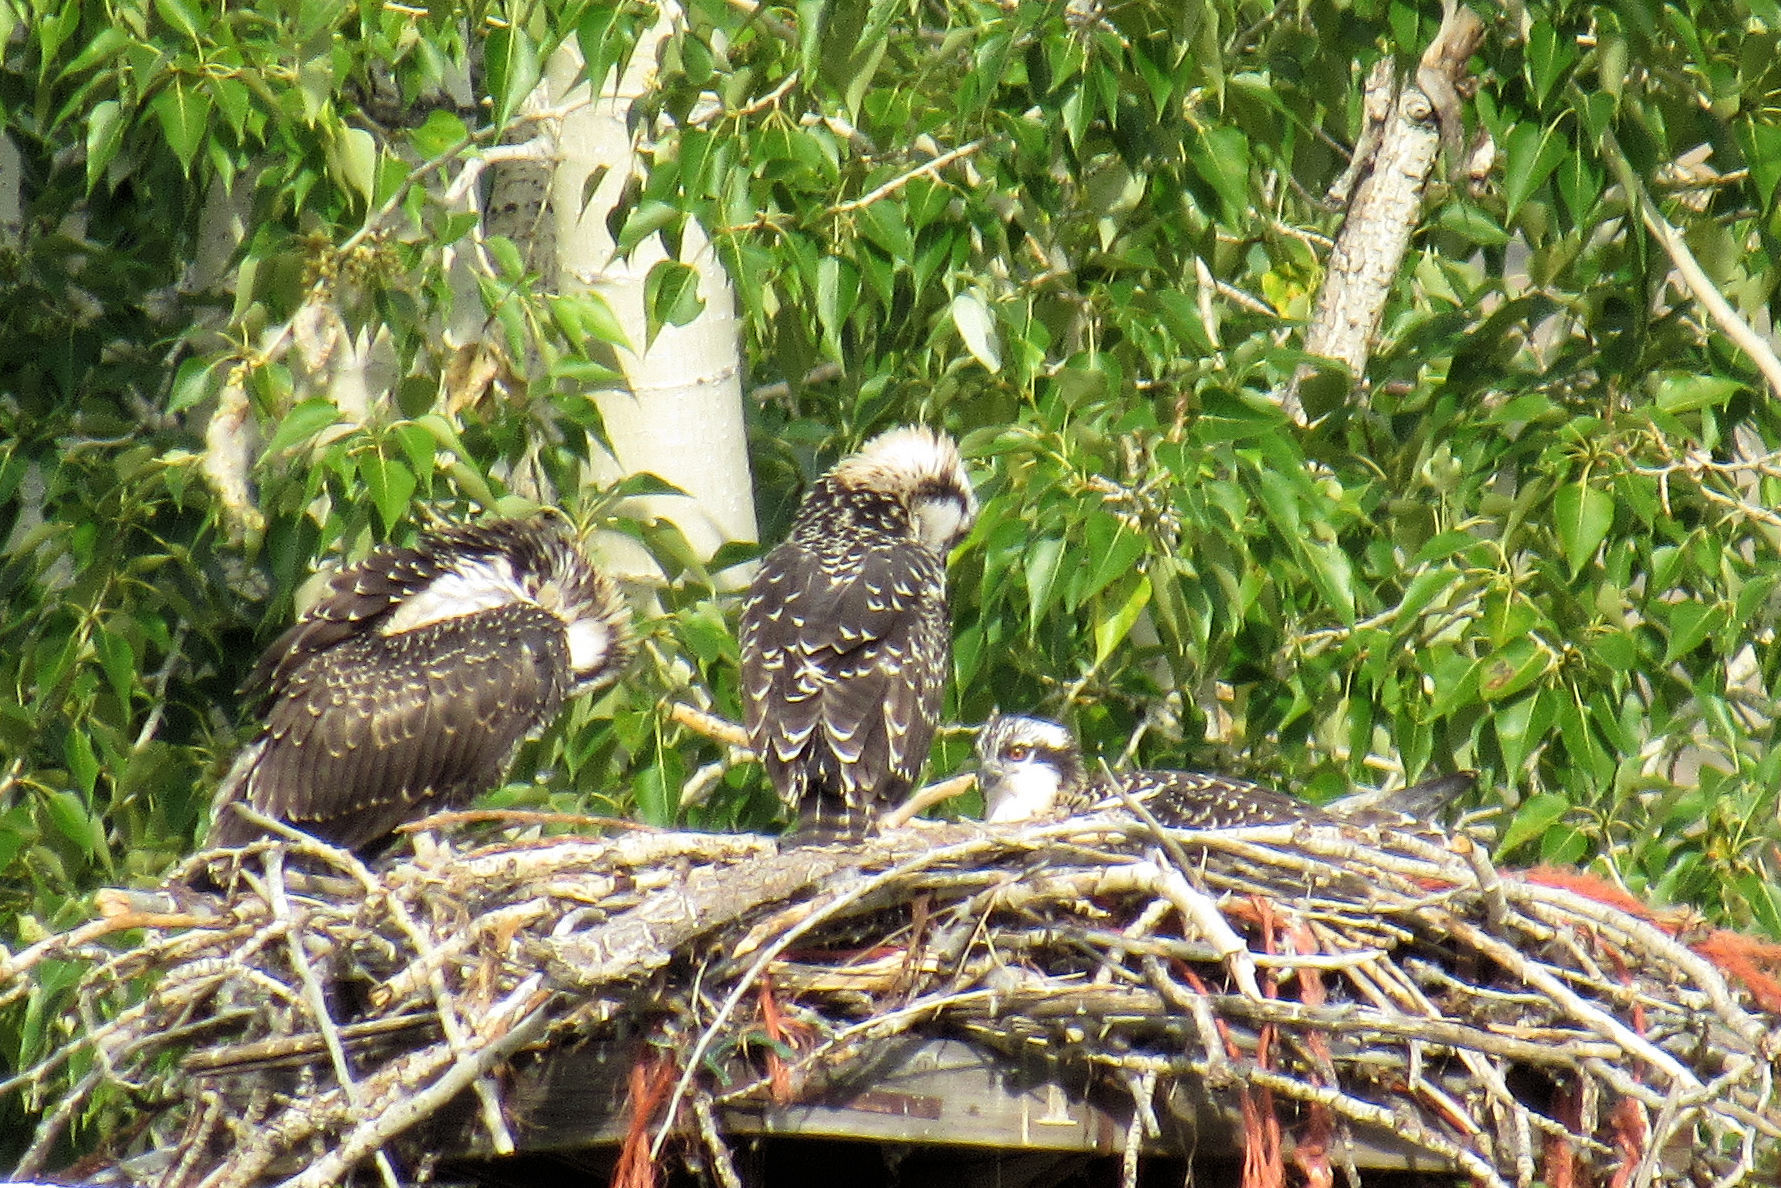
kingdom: Animalia
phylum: Chordata
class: Aves
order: Accipitriformes
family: Pandionidae
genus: Pandion
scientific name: Pandion haliaetus
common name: Osprey
